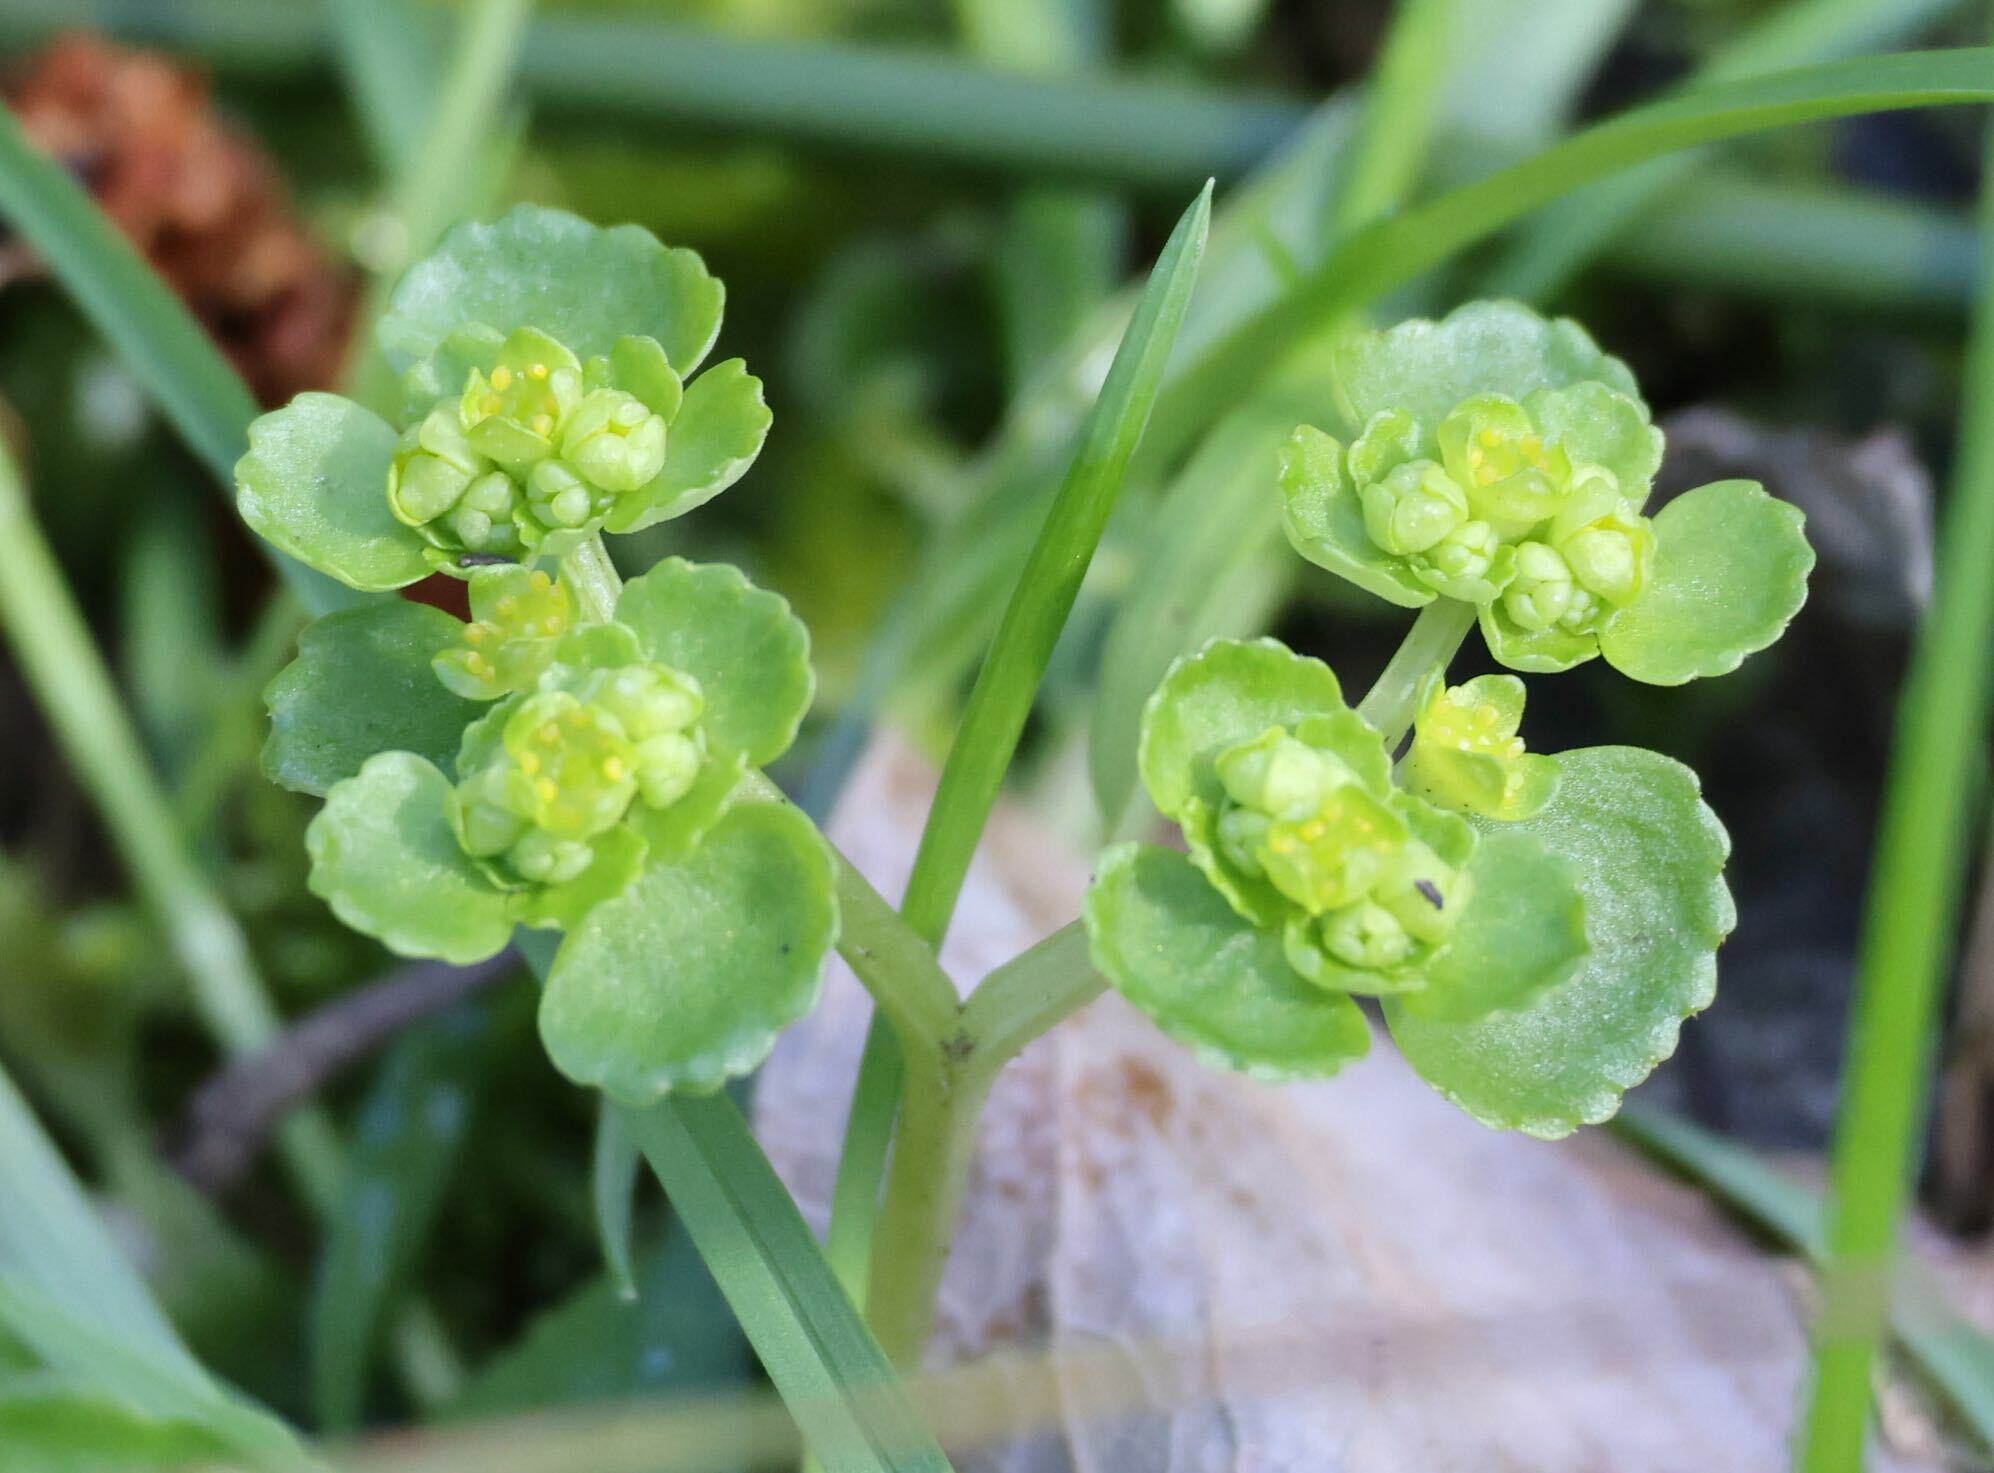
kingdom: Plantae
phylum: Tracheophyta
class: Magnoliopsida
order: Saxifragales
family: Saxifragaceae
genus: Chrysosplenium
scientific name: Chrysosplenium oppositifolium
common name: Opposite-leaved golden-saxifrage
